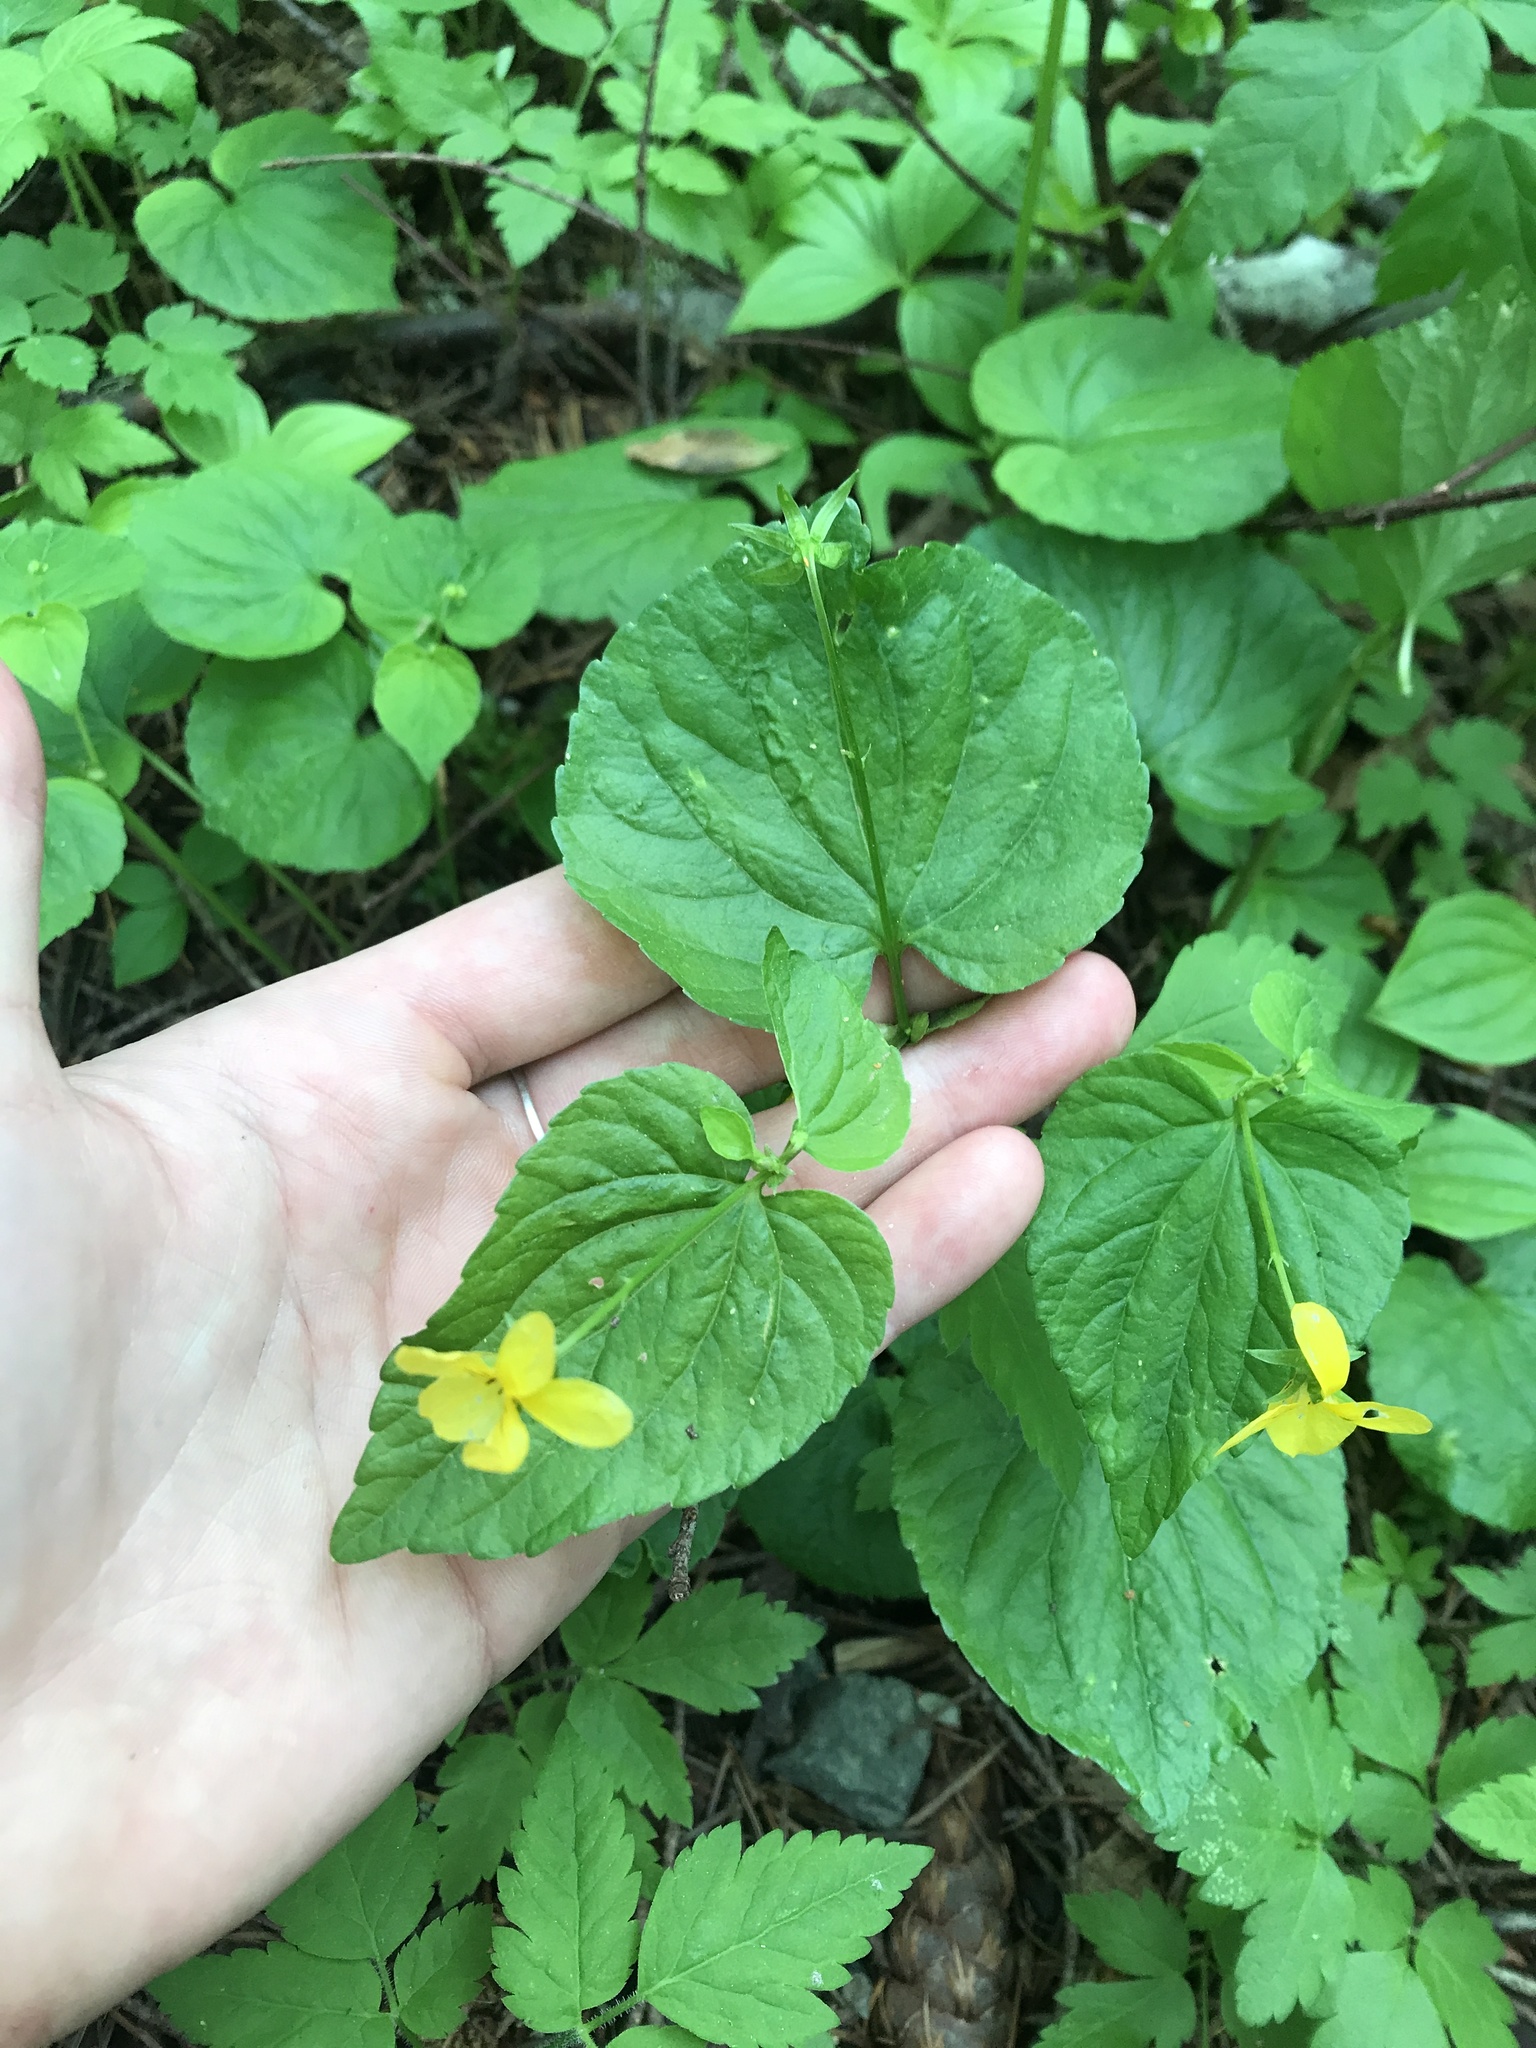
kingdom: Plantae
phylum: Tracheophyta
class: Magnoliopsida
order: Malpighiales
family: Violaceae
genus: Viola
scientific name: Viola glabella
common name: Stream violet
